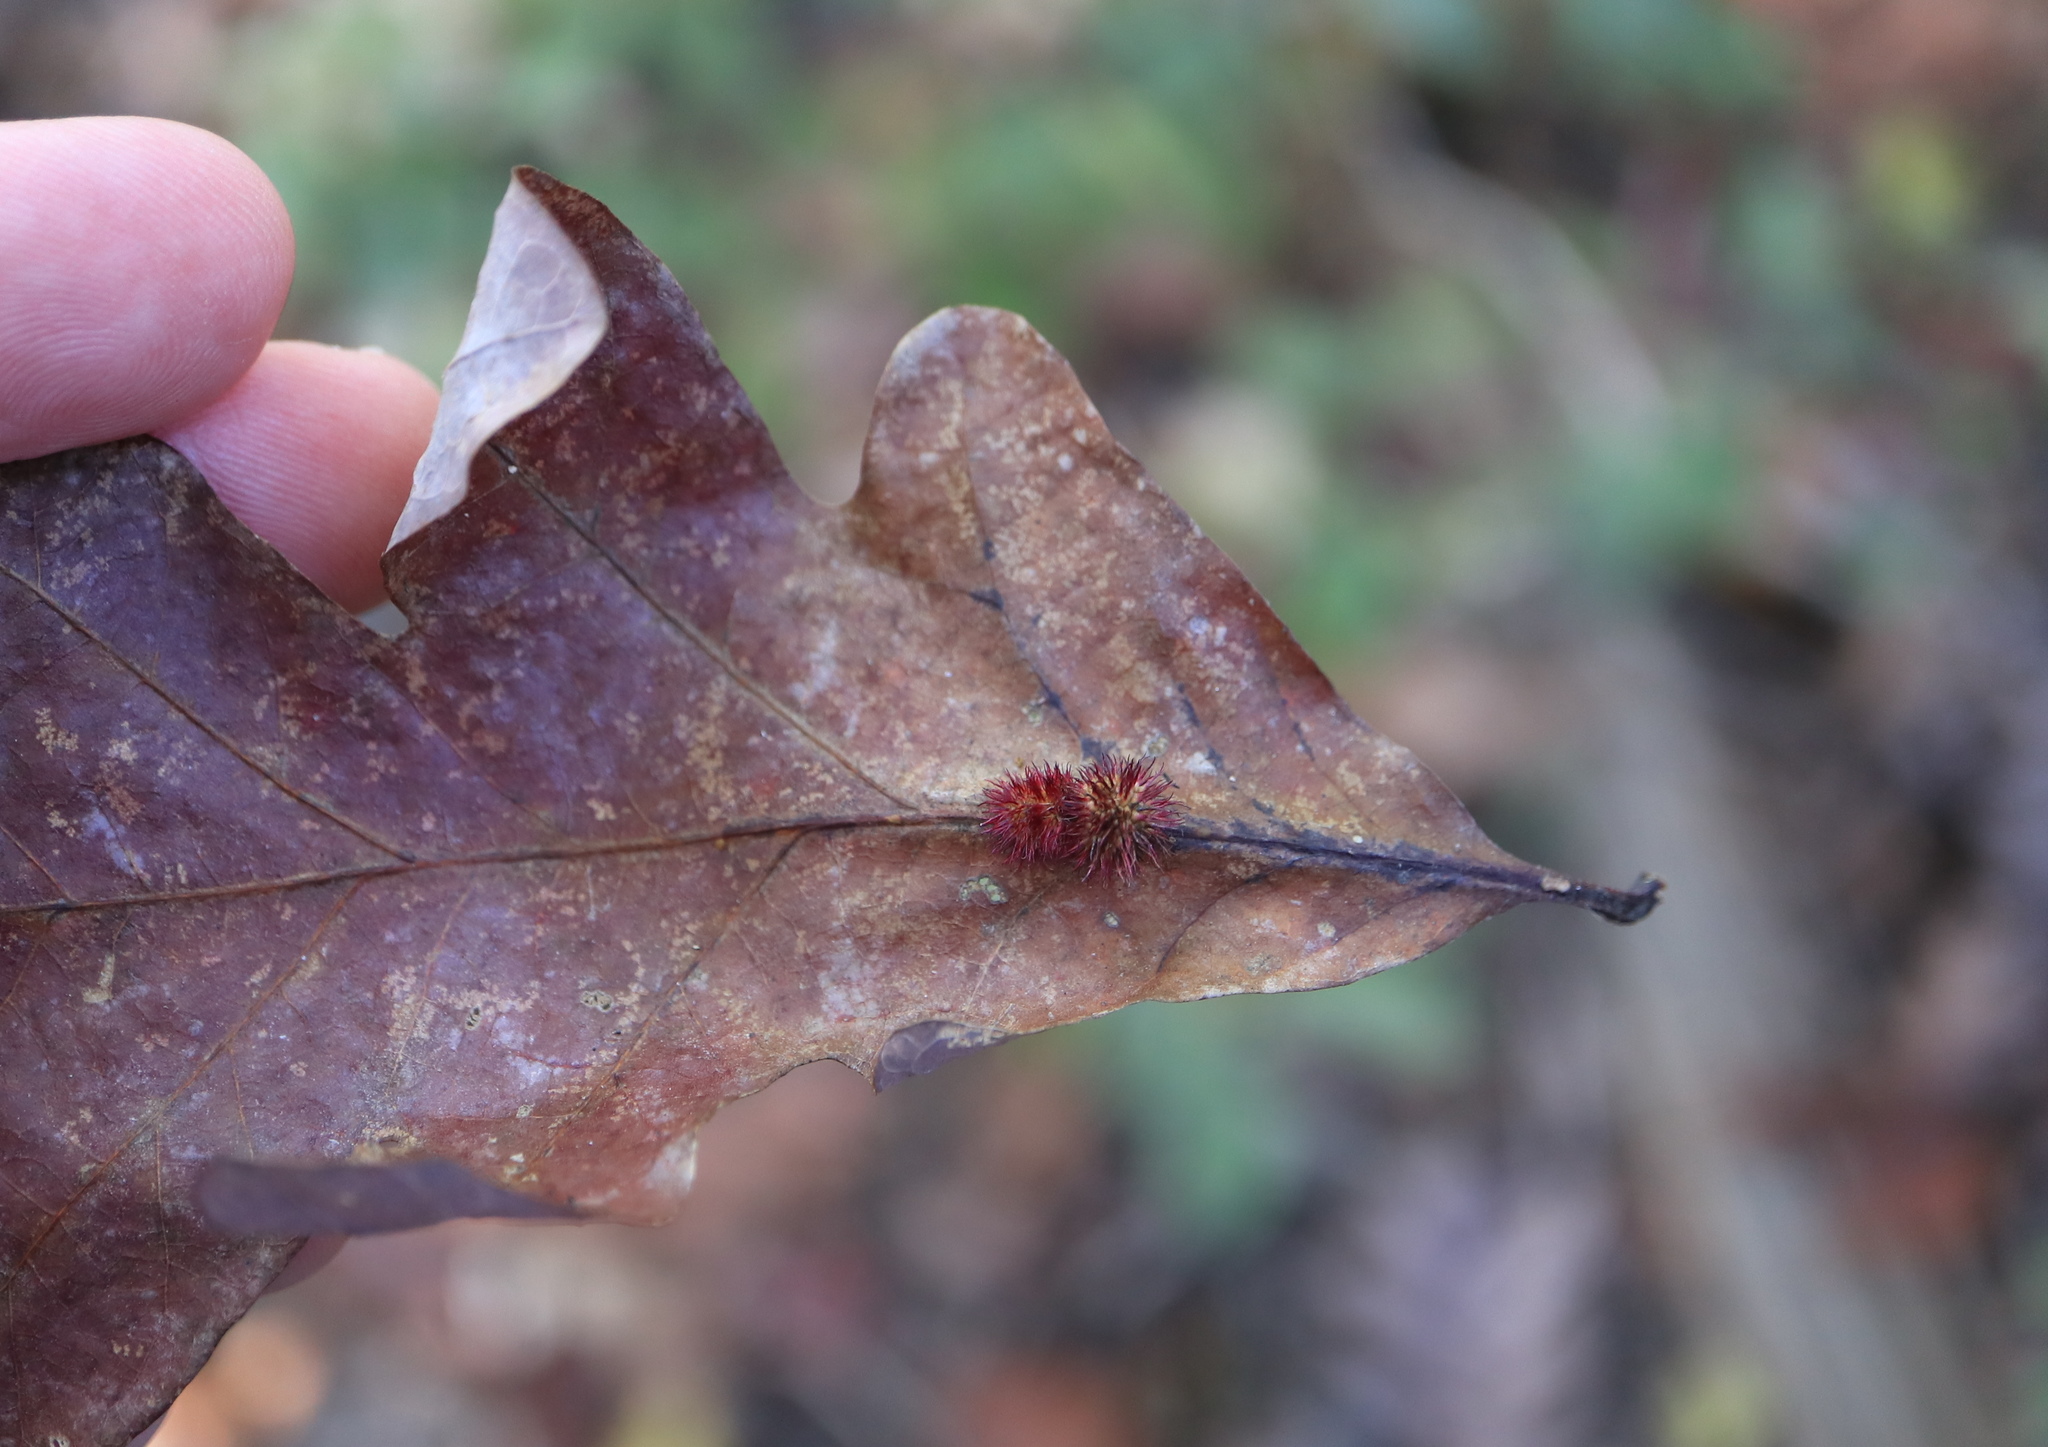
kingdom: Animalia
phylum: Arthropoda
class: Insecta
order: Hymenoptera
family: Cynipidae
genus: Acraspis
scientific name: Acraspis erinacei
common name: Hedgehog gall wasp
